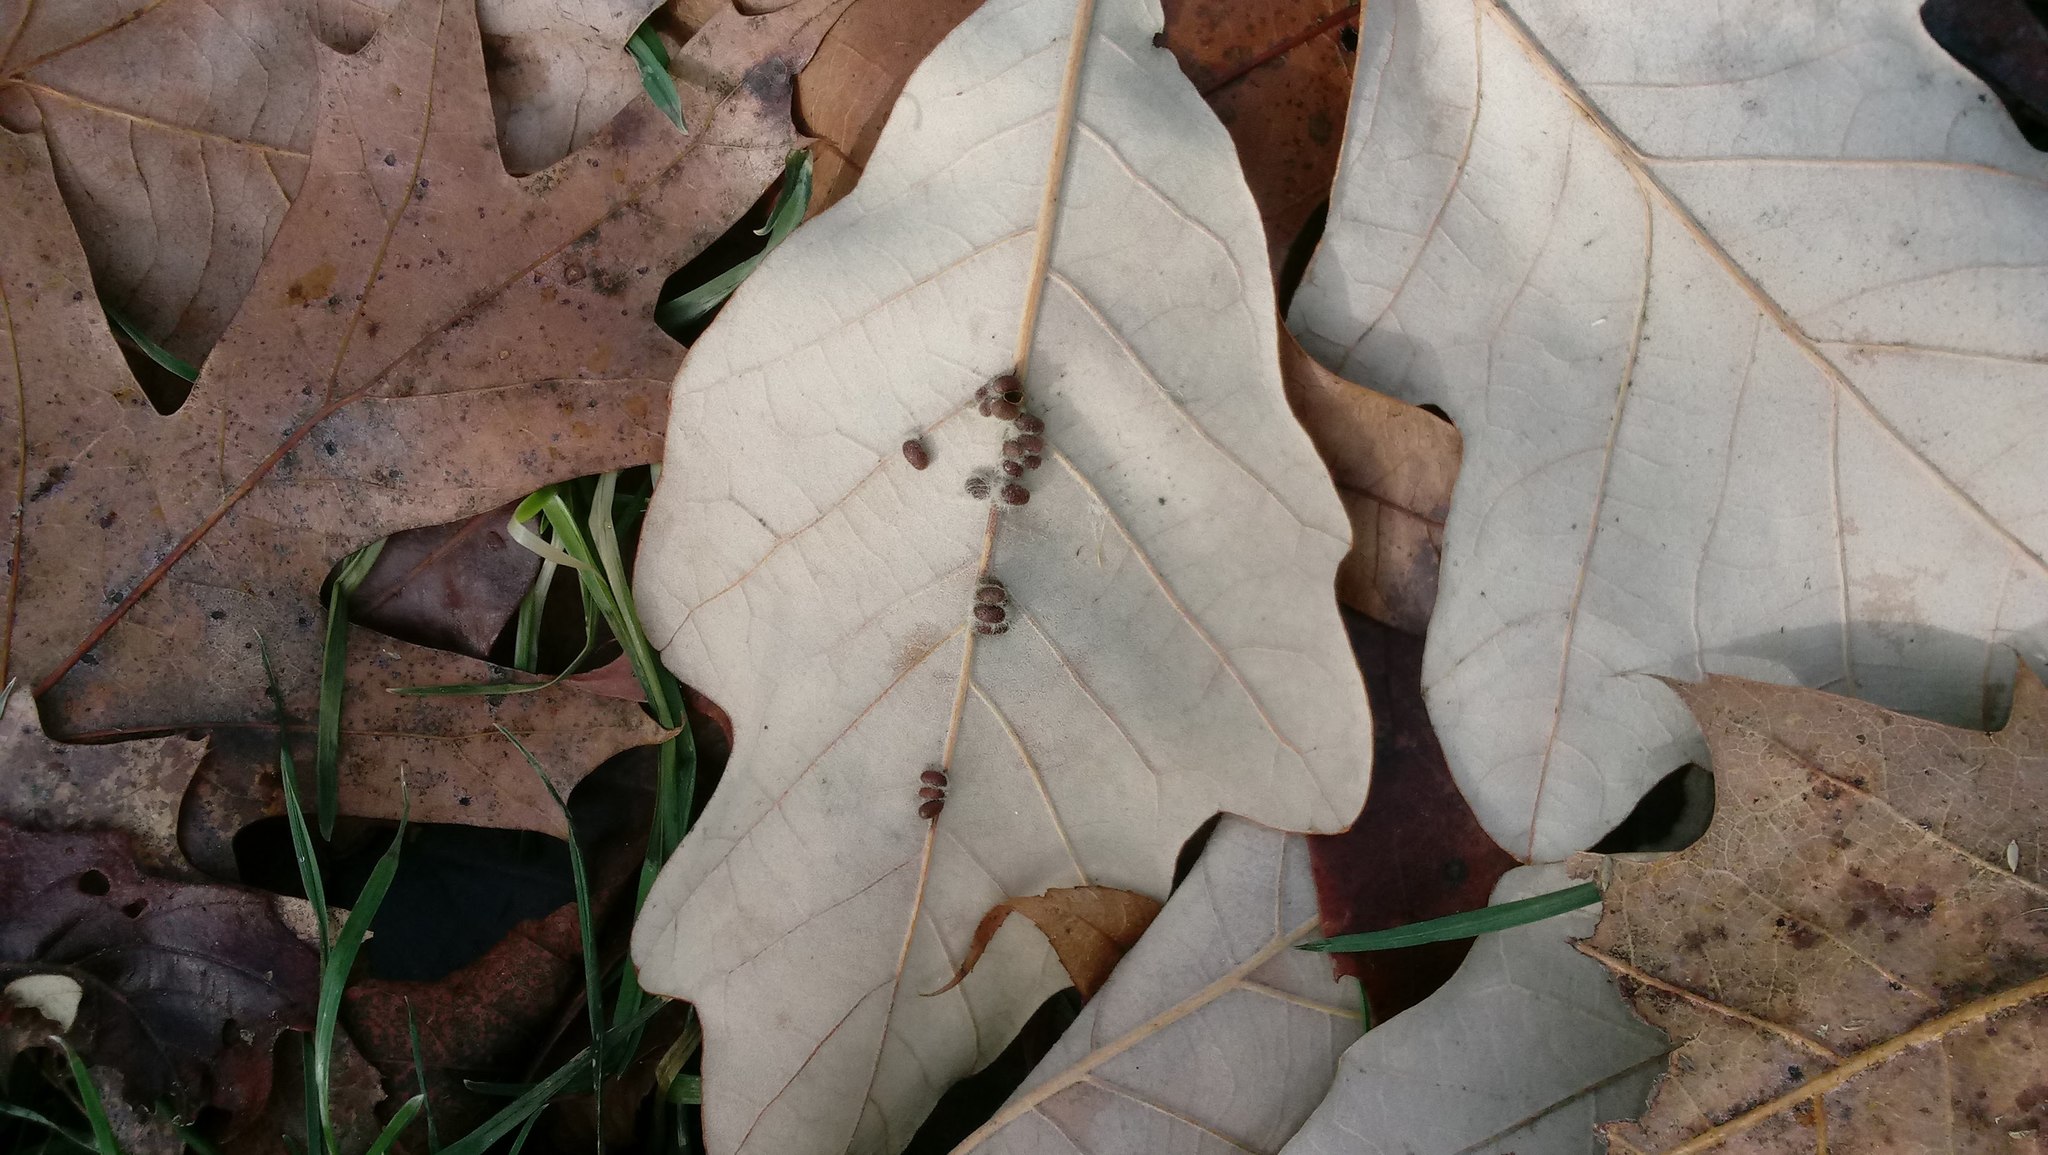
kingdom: Animalia
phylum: Arthropoda
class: Insecta
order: Hymenoptera
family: Cynipidae
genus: Andricus
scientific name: Andricus Druon ignotum
